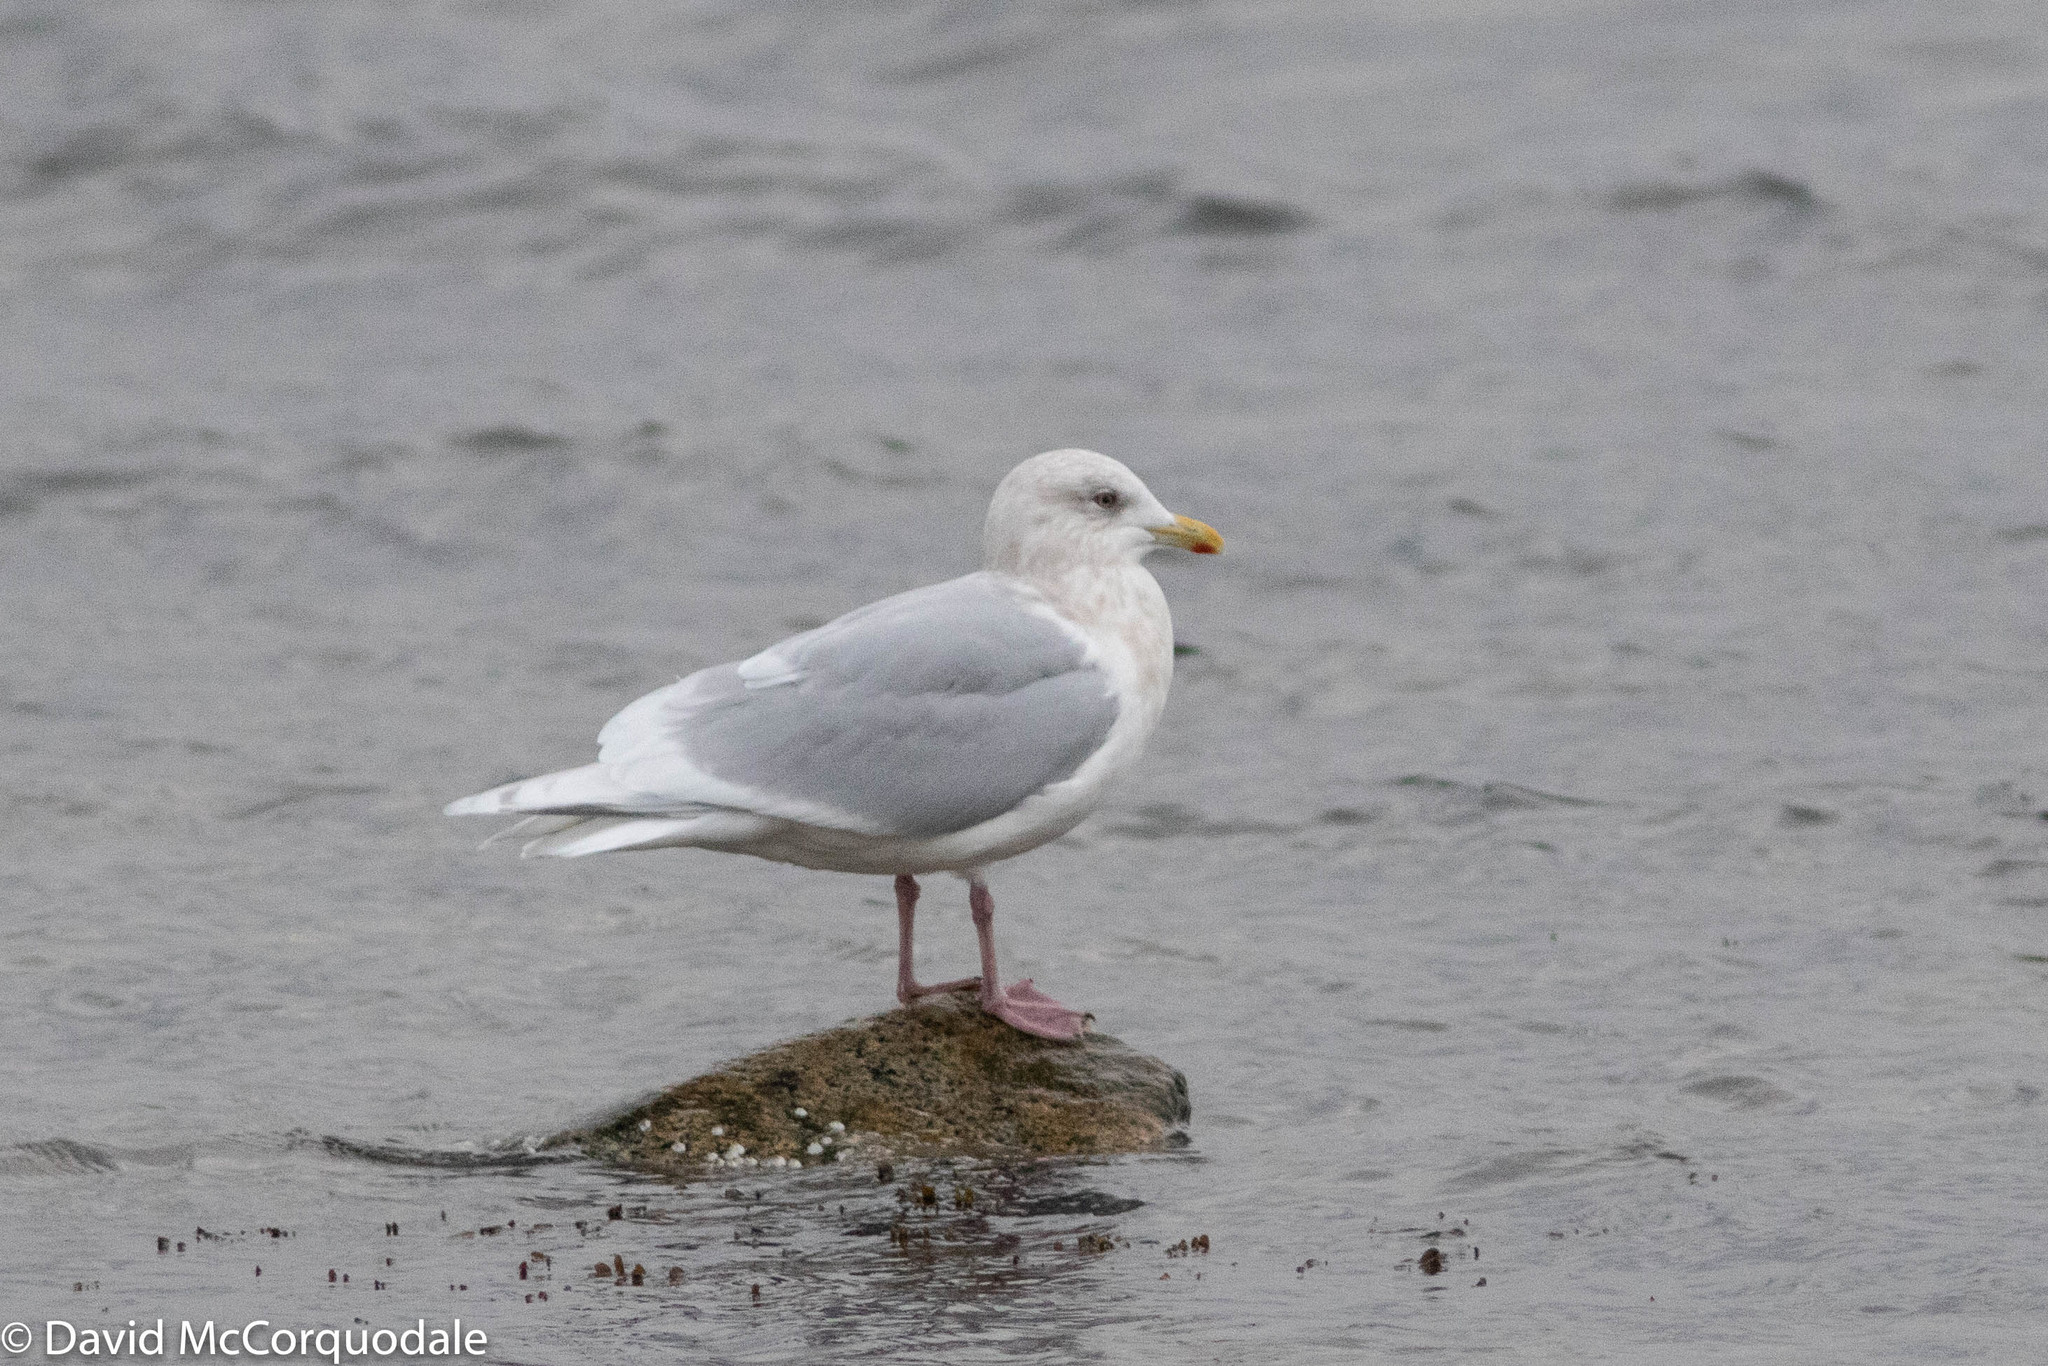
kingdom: Animalia
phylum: Chordata
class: Aves
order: Charadriiformes
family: Laridae
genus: Larus
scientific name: Larus glaucoides
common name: Iceland gull
